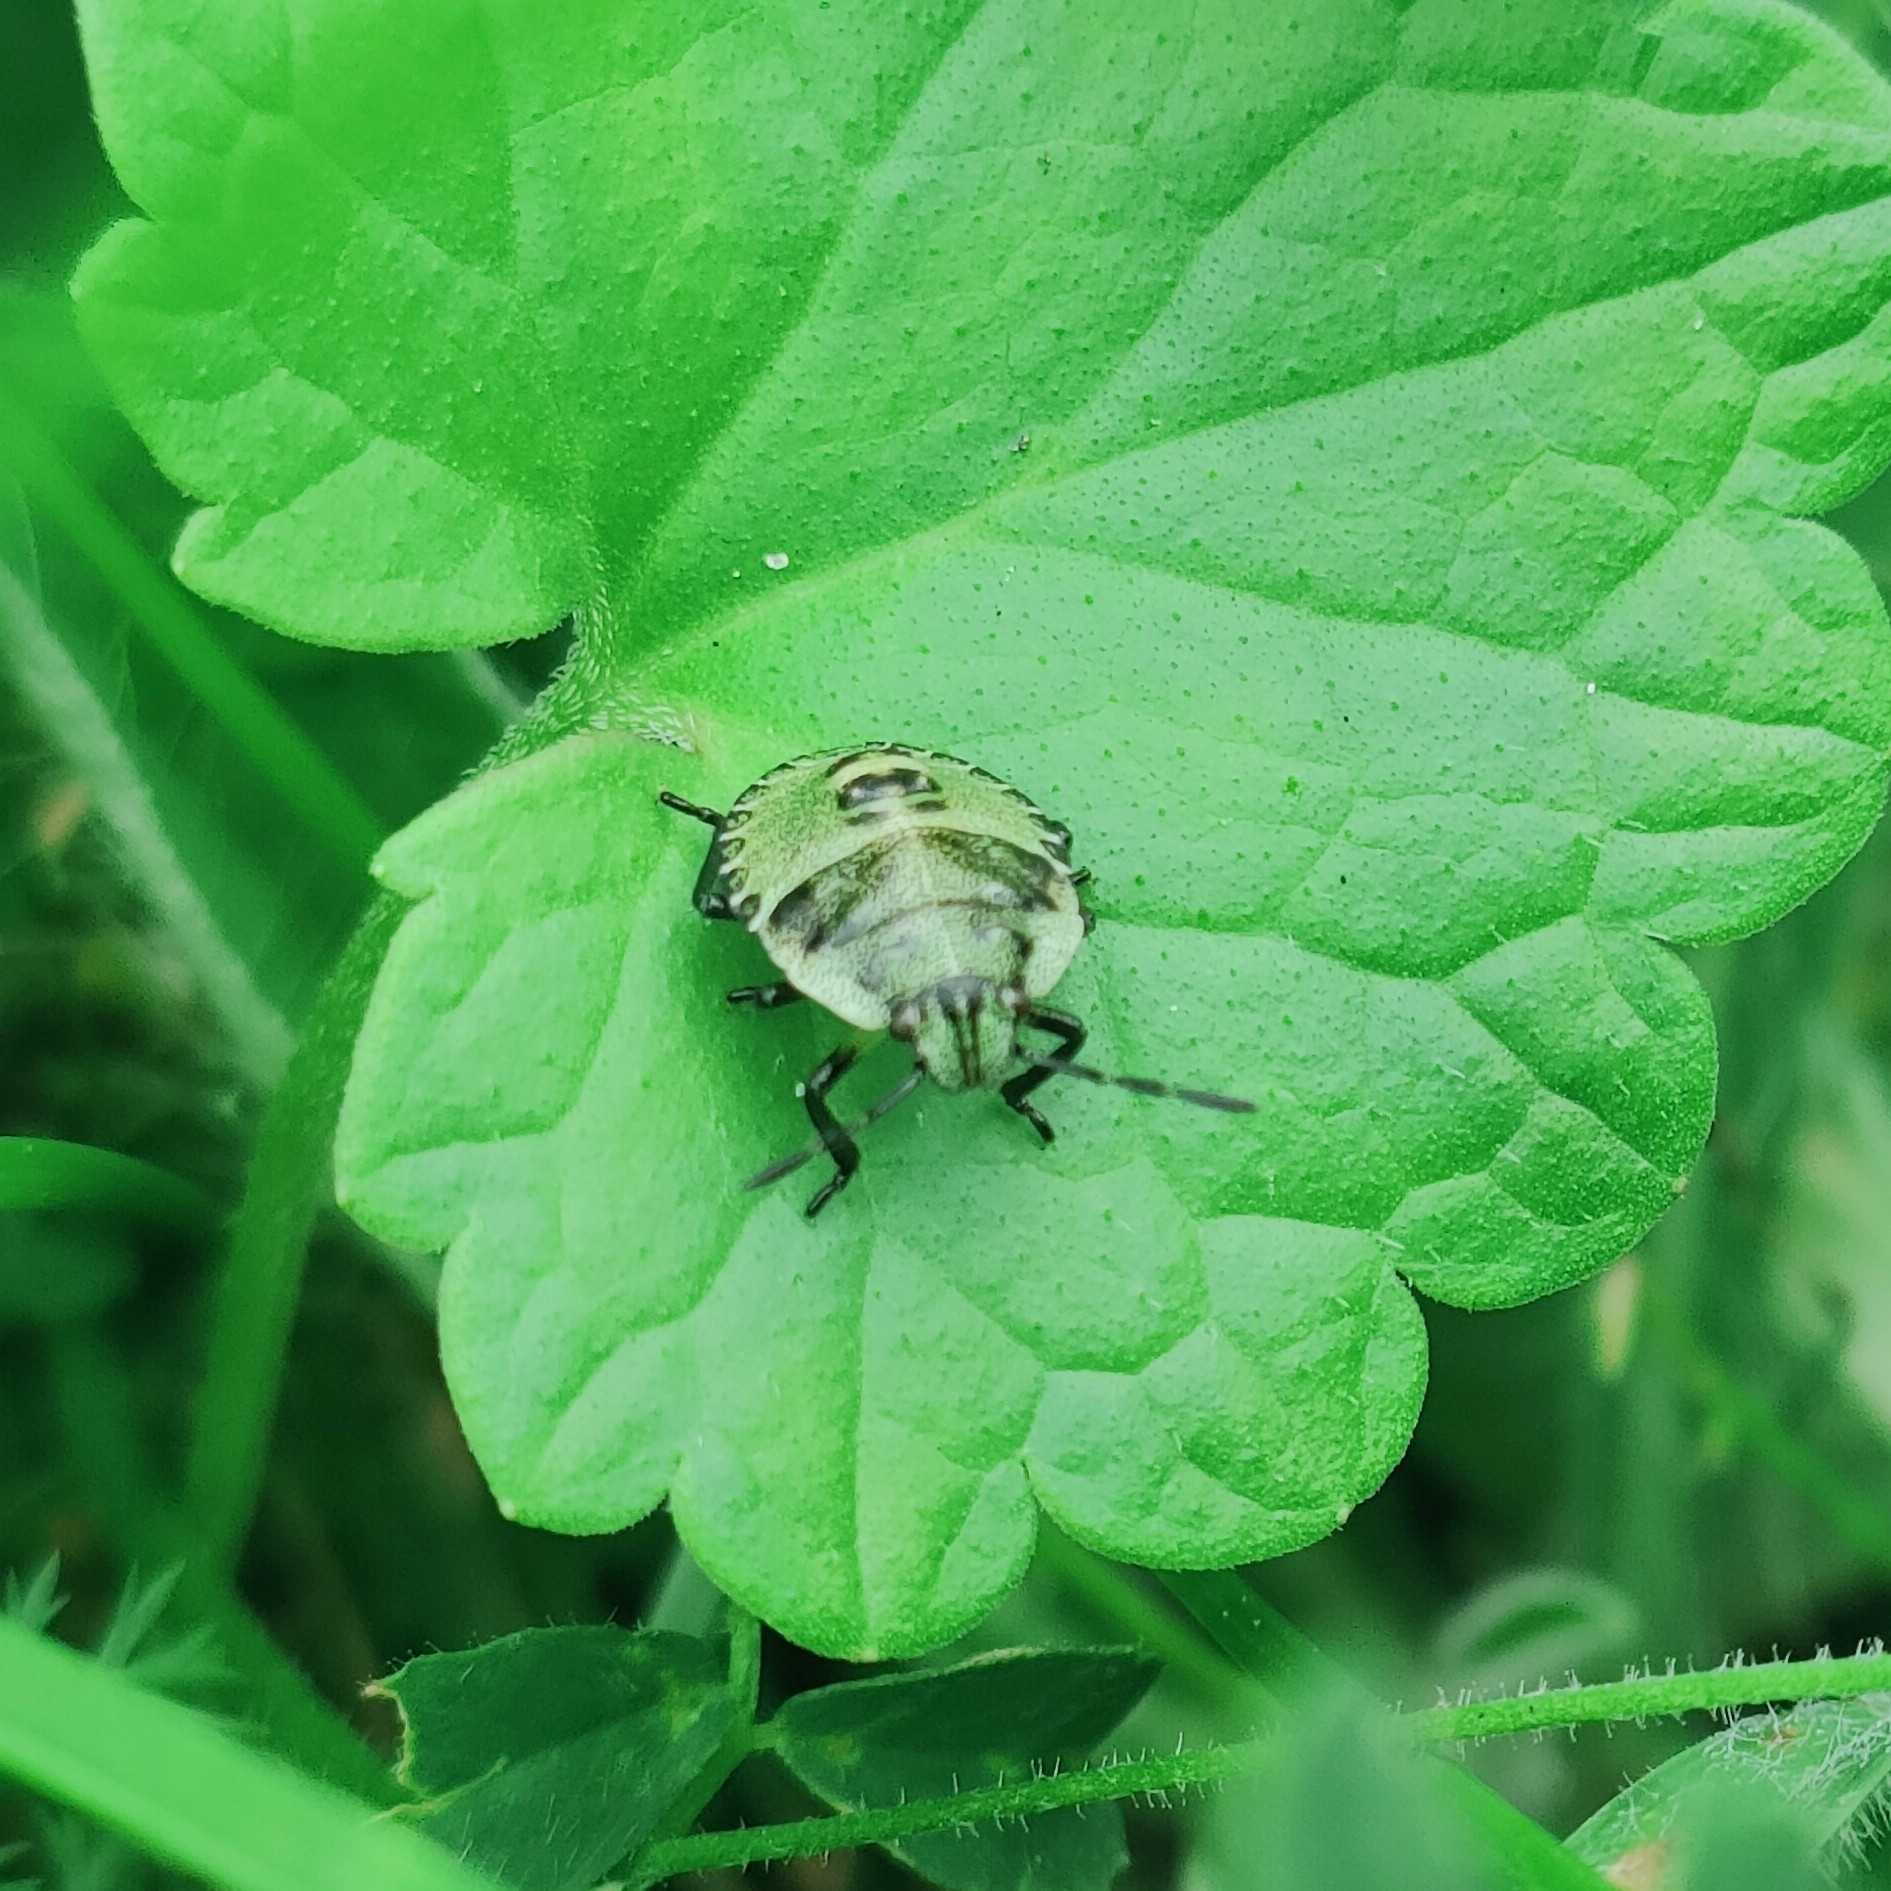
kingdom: Animalia
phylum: Arthropoda
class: Insecta
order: Hemiptera
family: Pentatomidae
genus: Palomena
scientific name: Palomena prasina
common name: Green shieldbug
